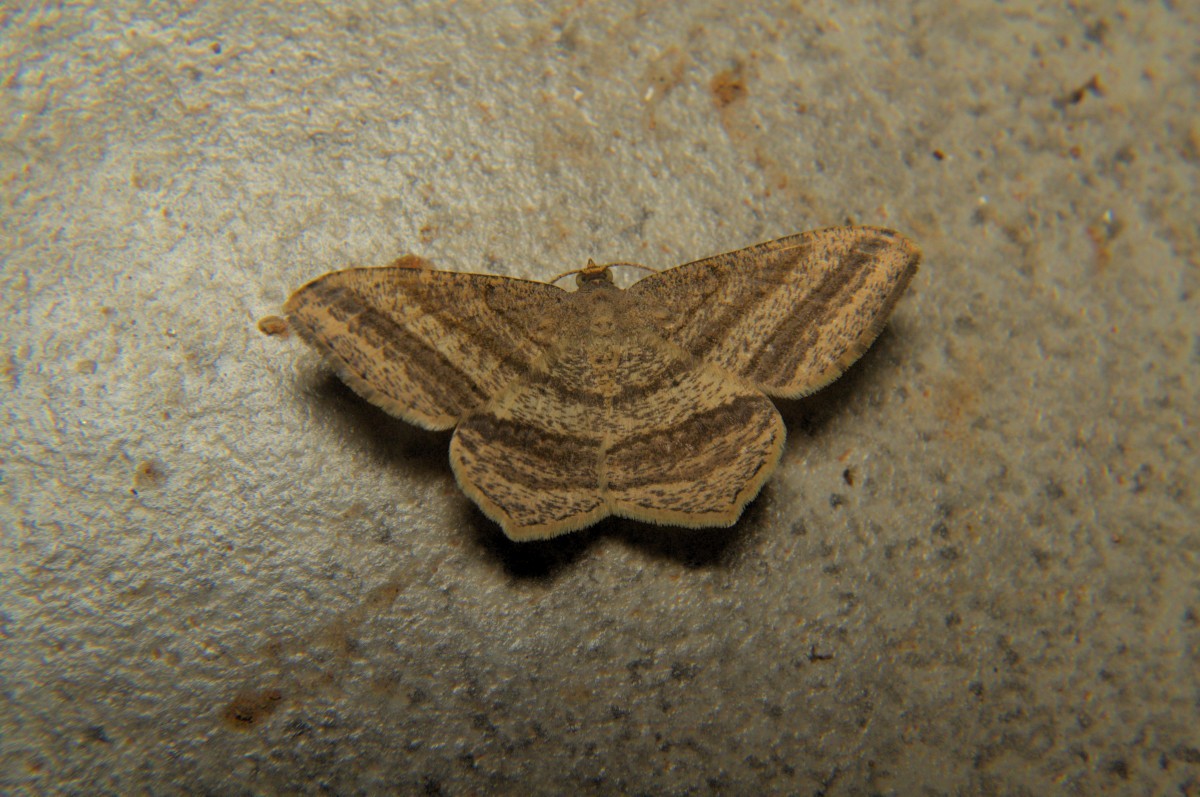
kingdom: Animalia
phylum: Arthropoda
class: Insecta
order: Lepidoptera
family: Geometridae
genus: Chiasmia
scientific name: Chiasmia fidoniata
